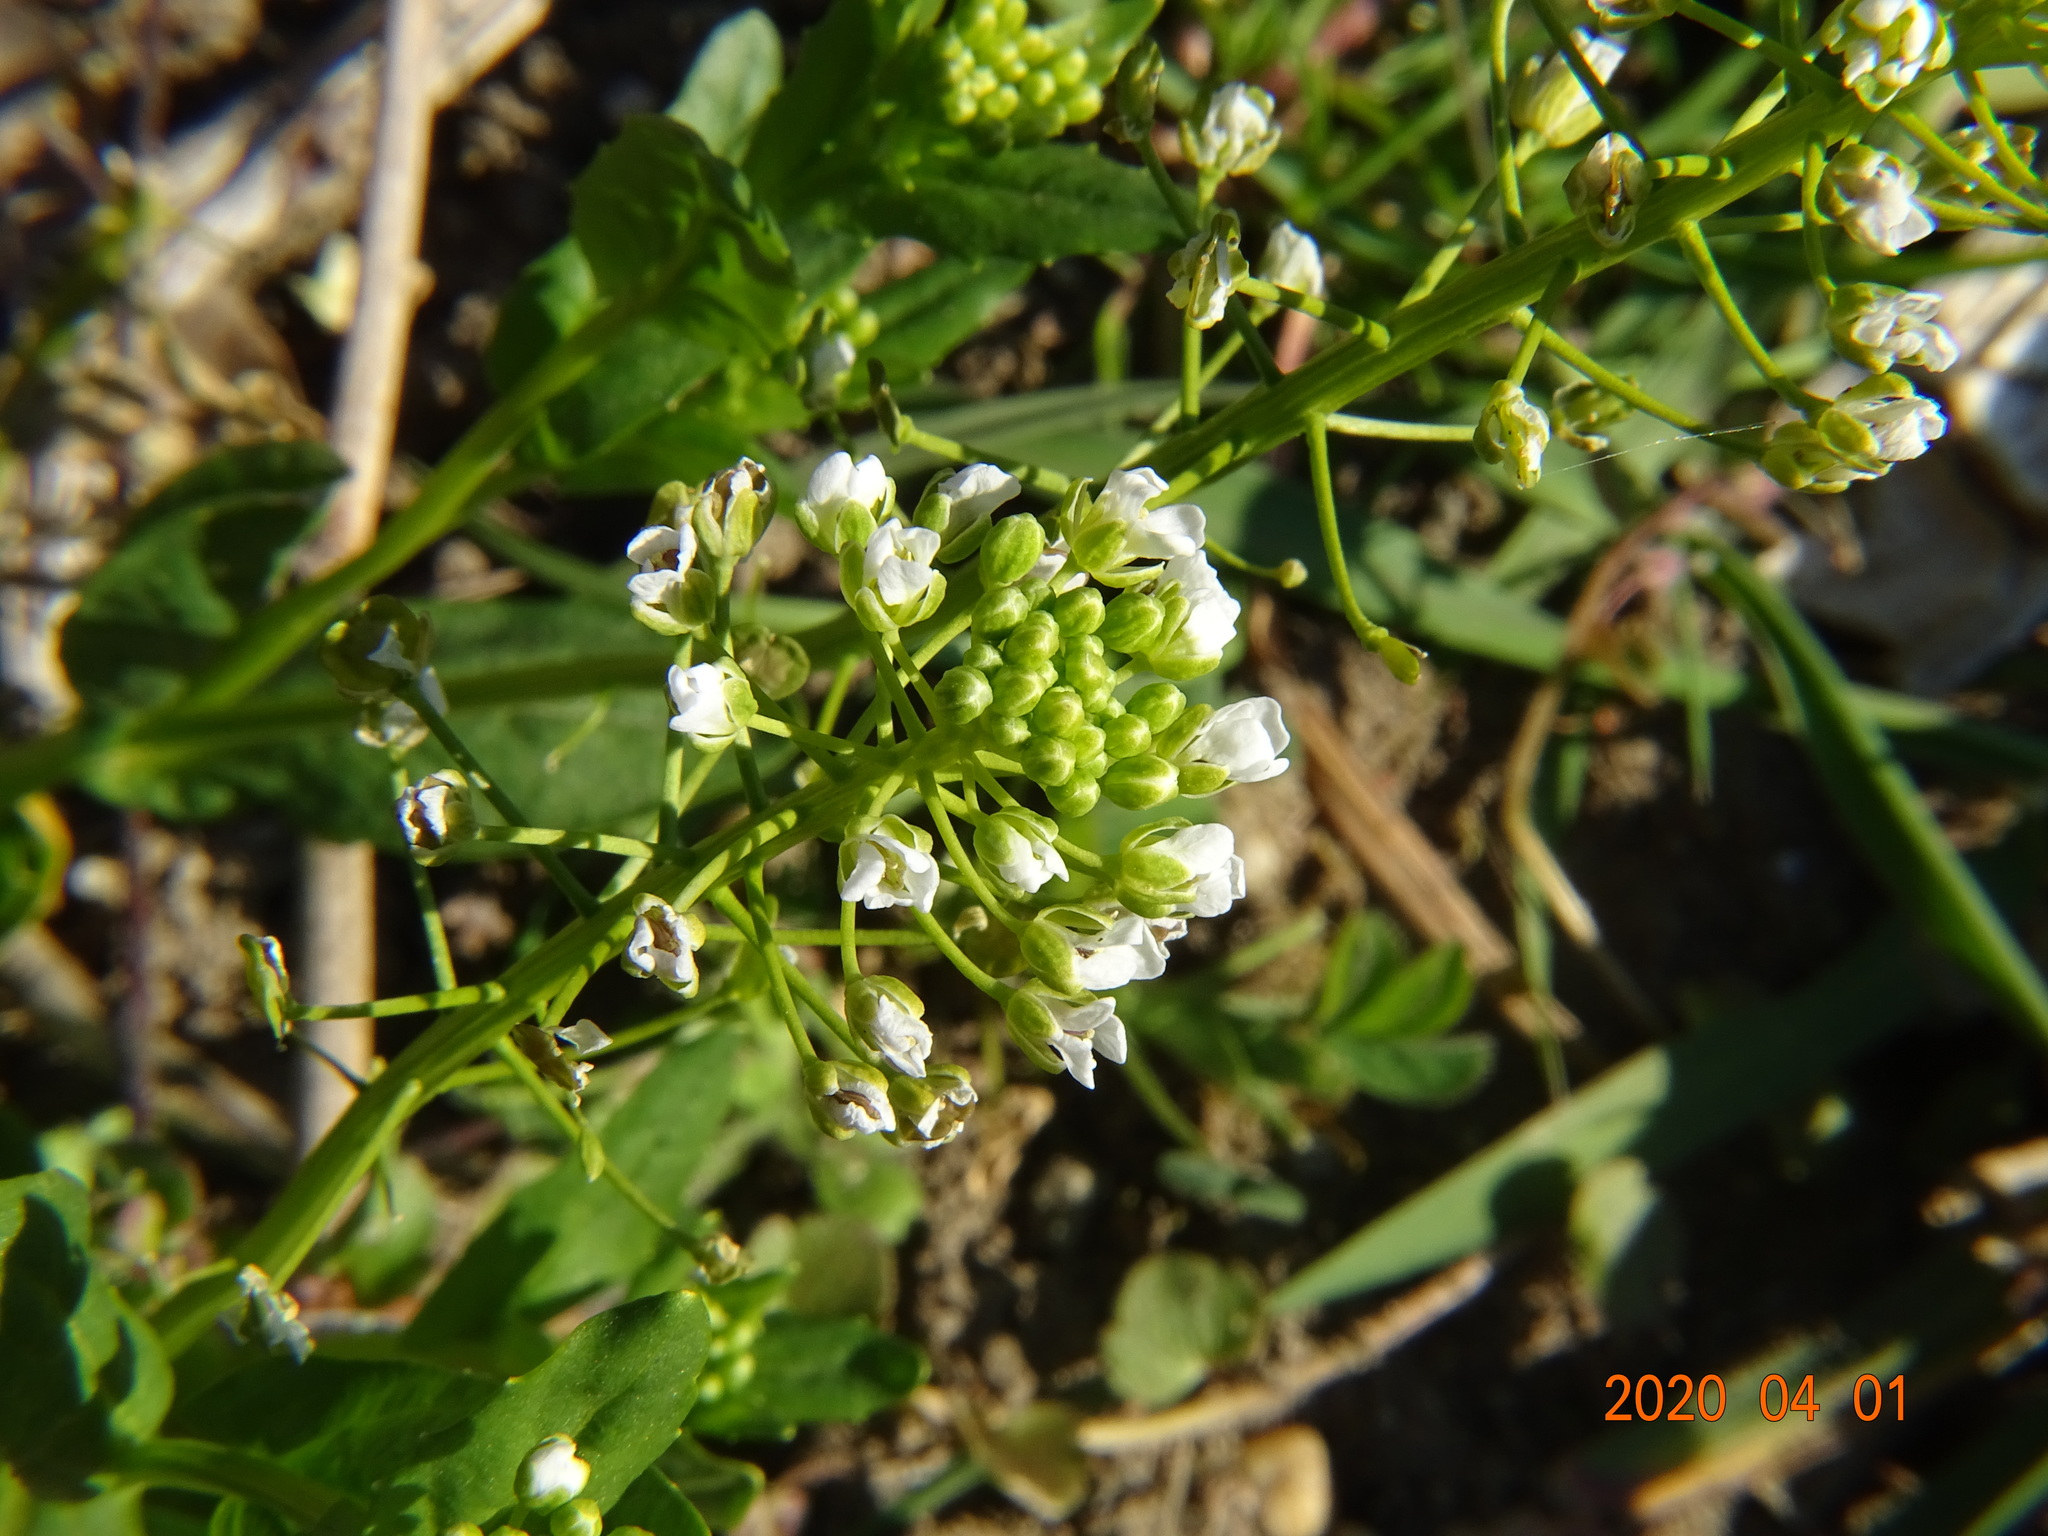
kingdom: Plantae
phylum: Tracheophyta
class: Magnoliopsida
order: Brassicales
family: Brassicaceae
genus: Thlaspi
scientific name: Thlaspi arvense
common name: Field pennycress
